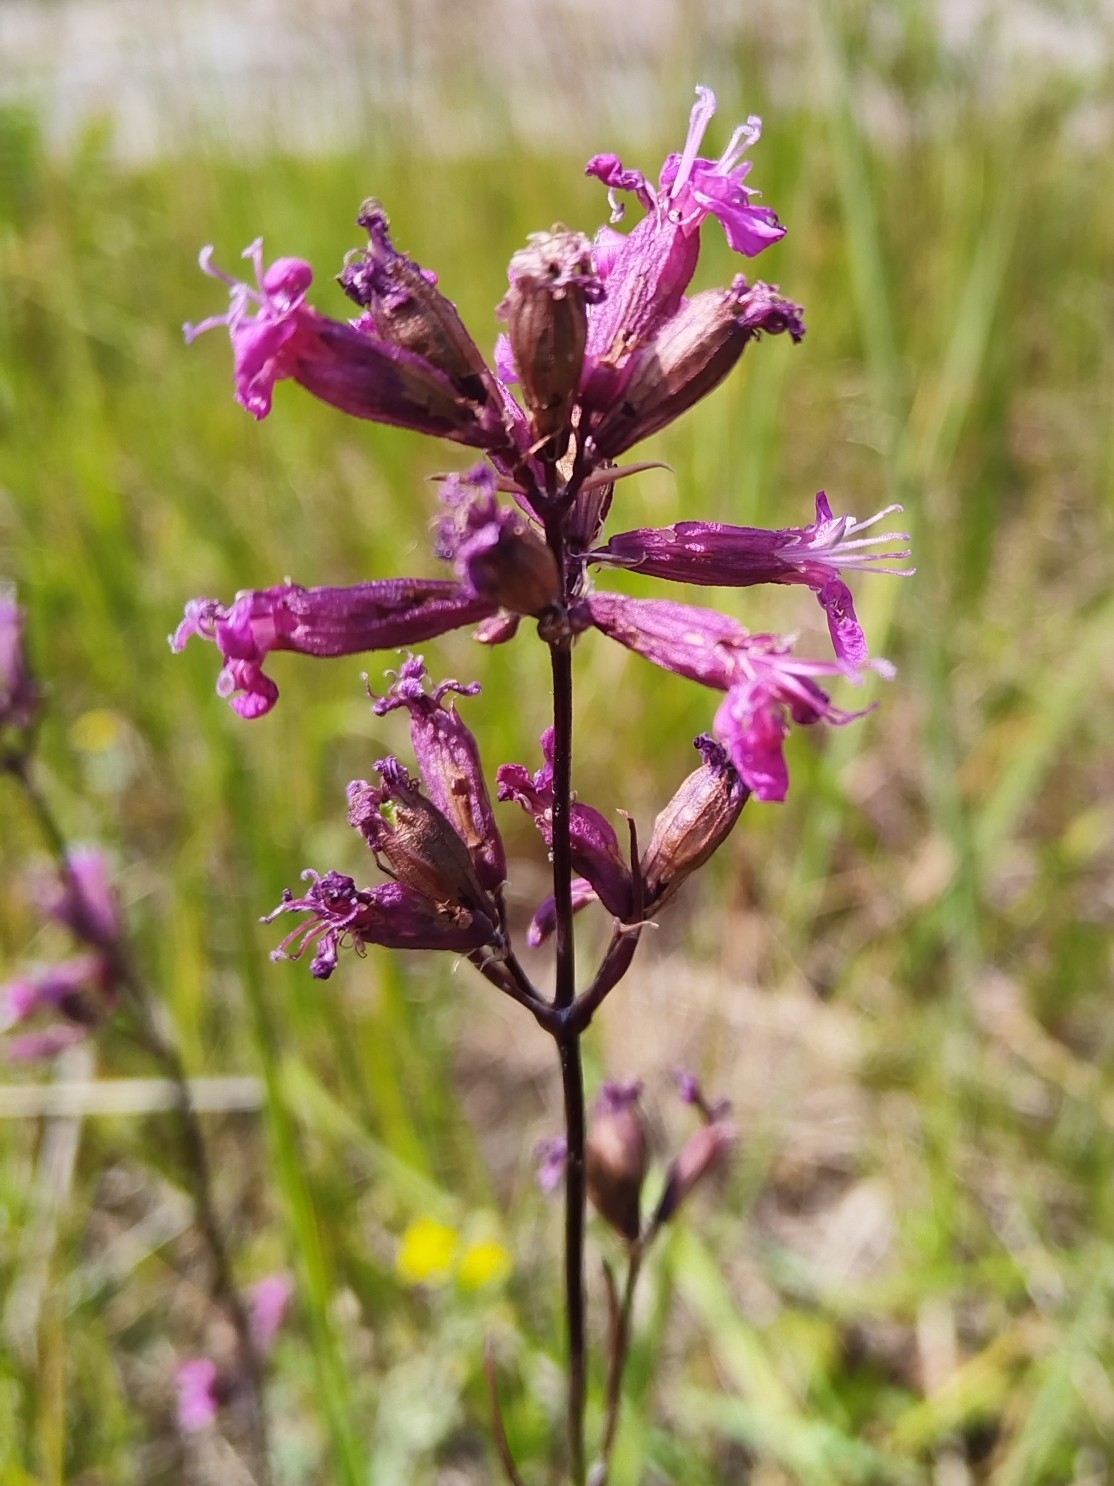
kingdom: Plantae
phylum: Tracheophyta
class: Magnoliopsida
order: Caryophyllales
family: Caryophyllaceae
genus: Viscaria
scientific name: Viscaria vulgaris
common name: Clammy campion
